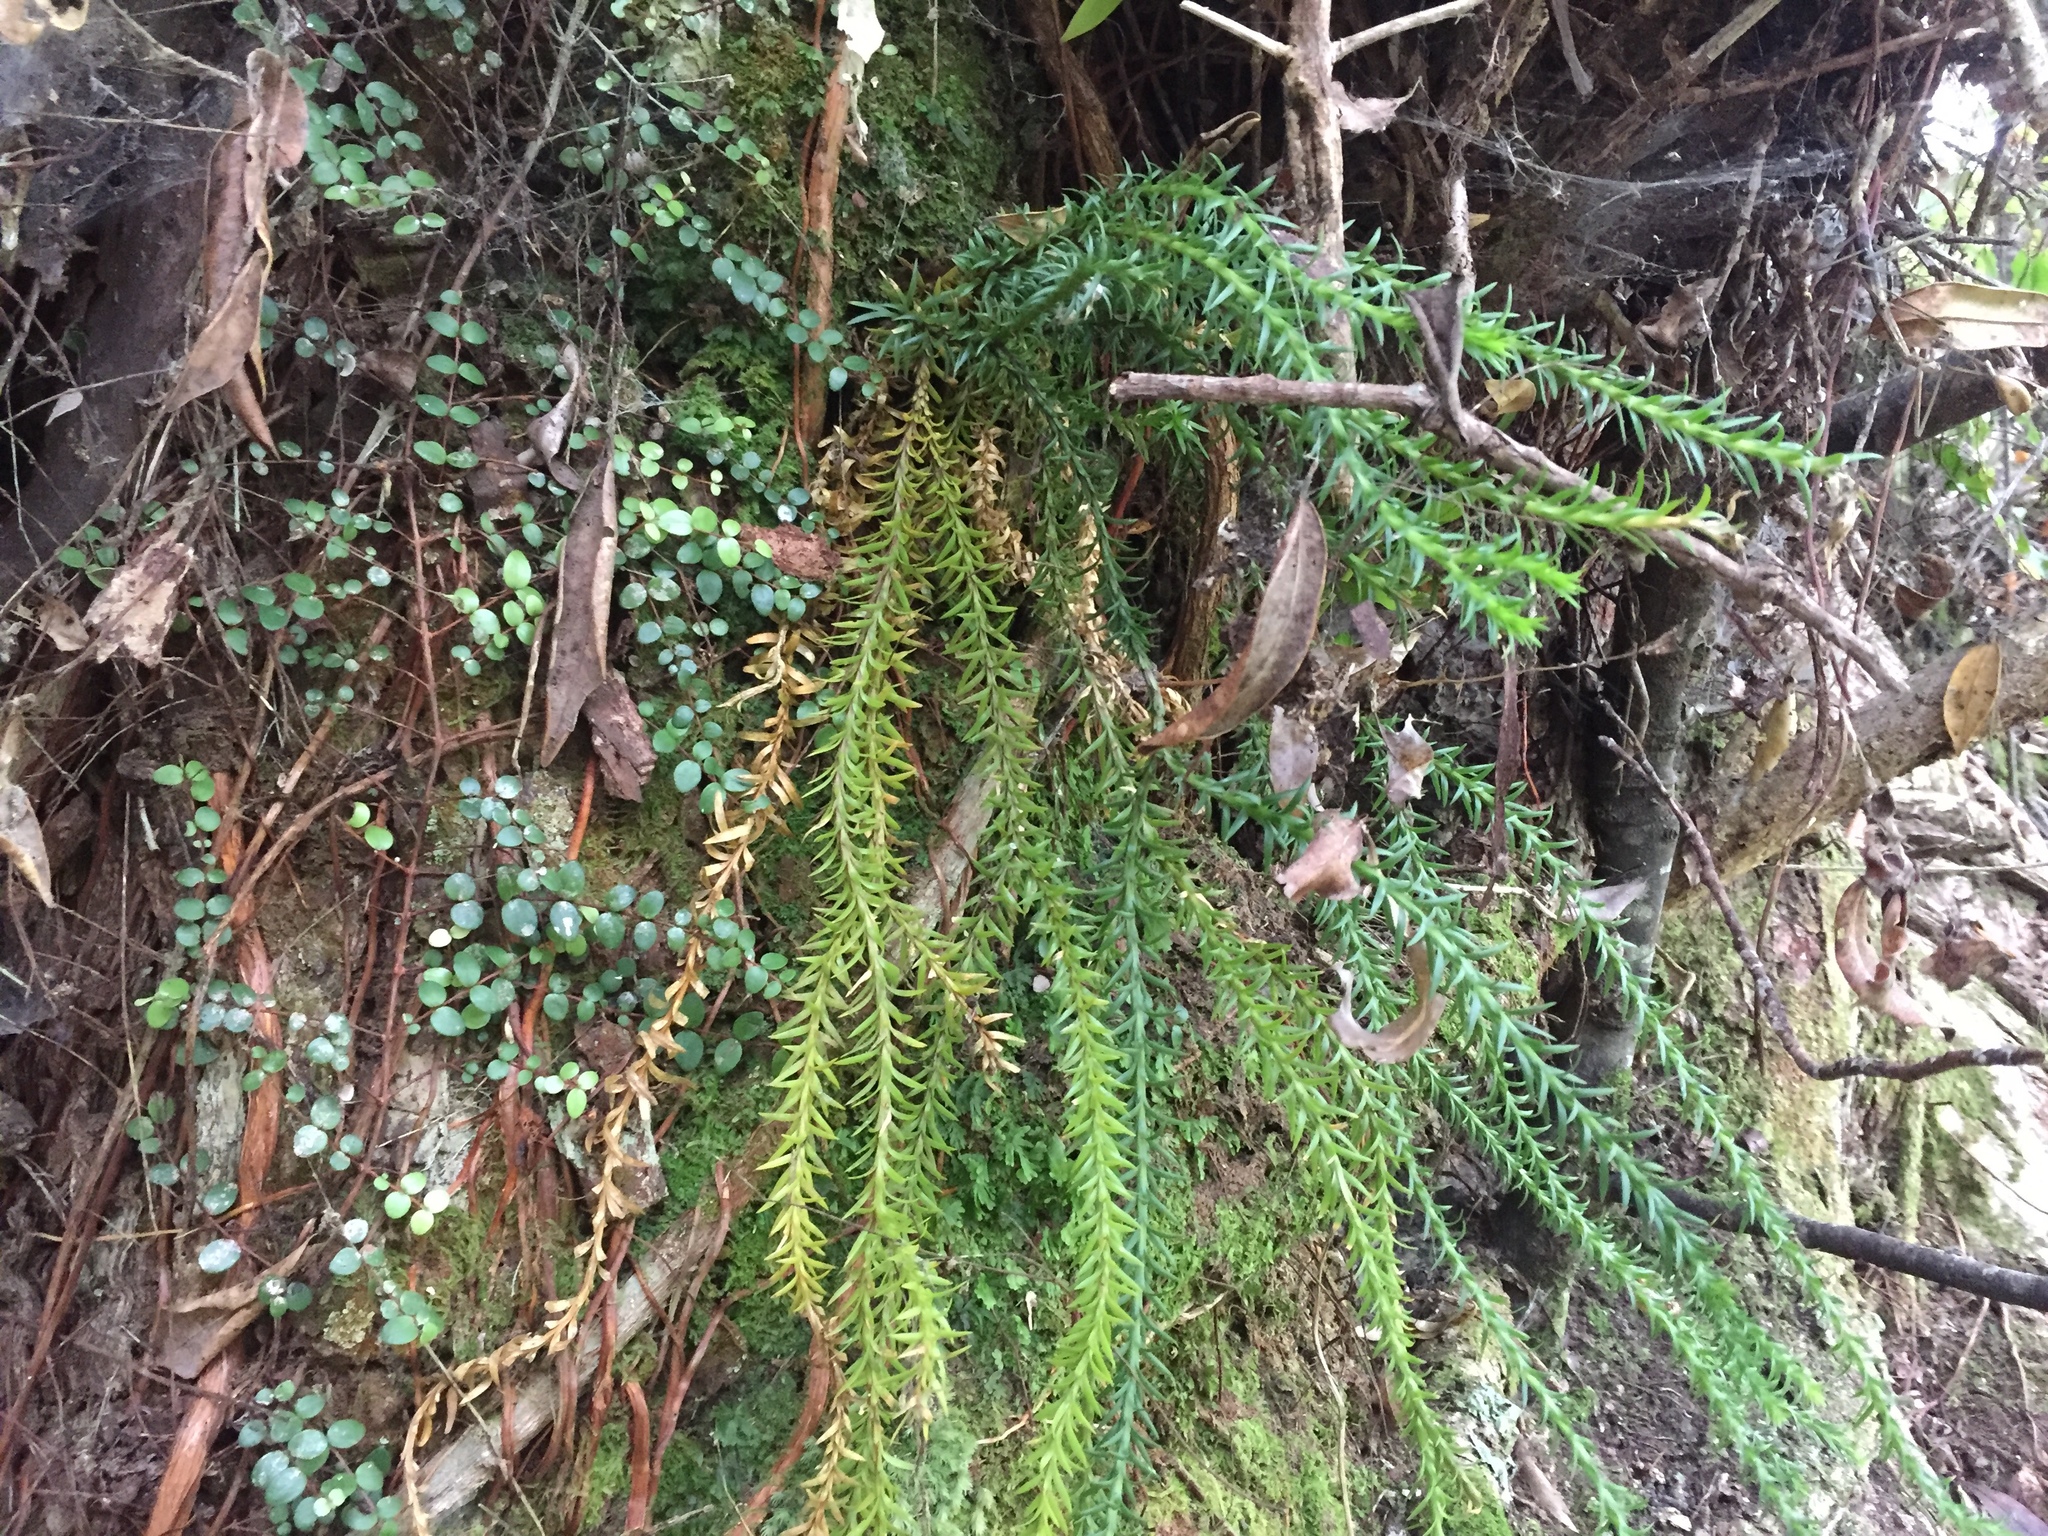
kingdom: Plantae
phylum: Tracheophyta
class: Lycopodiopsida
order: Lycopodiales
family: Lycopodiaceae
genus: Phlegmariurus
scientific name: Phlegmariurus varius
